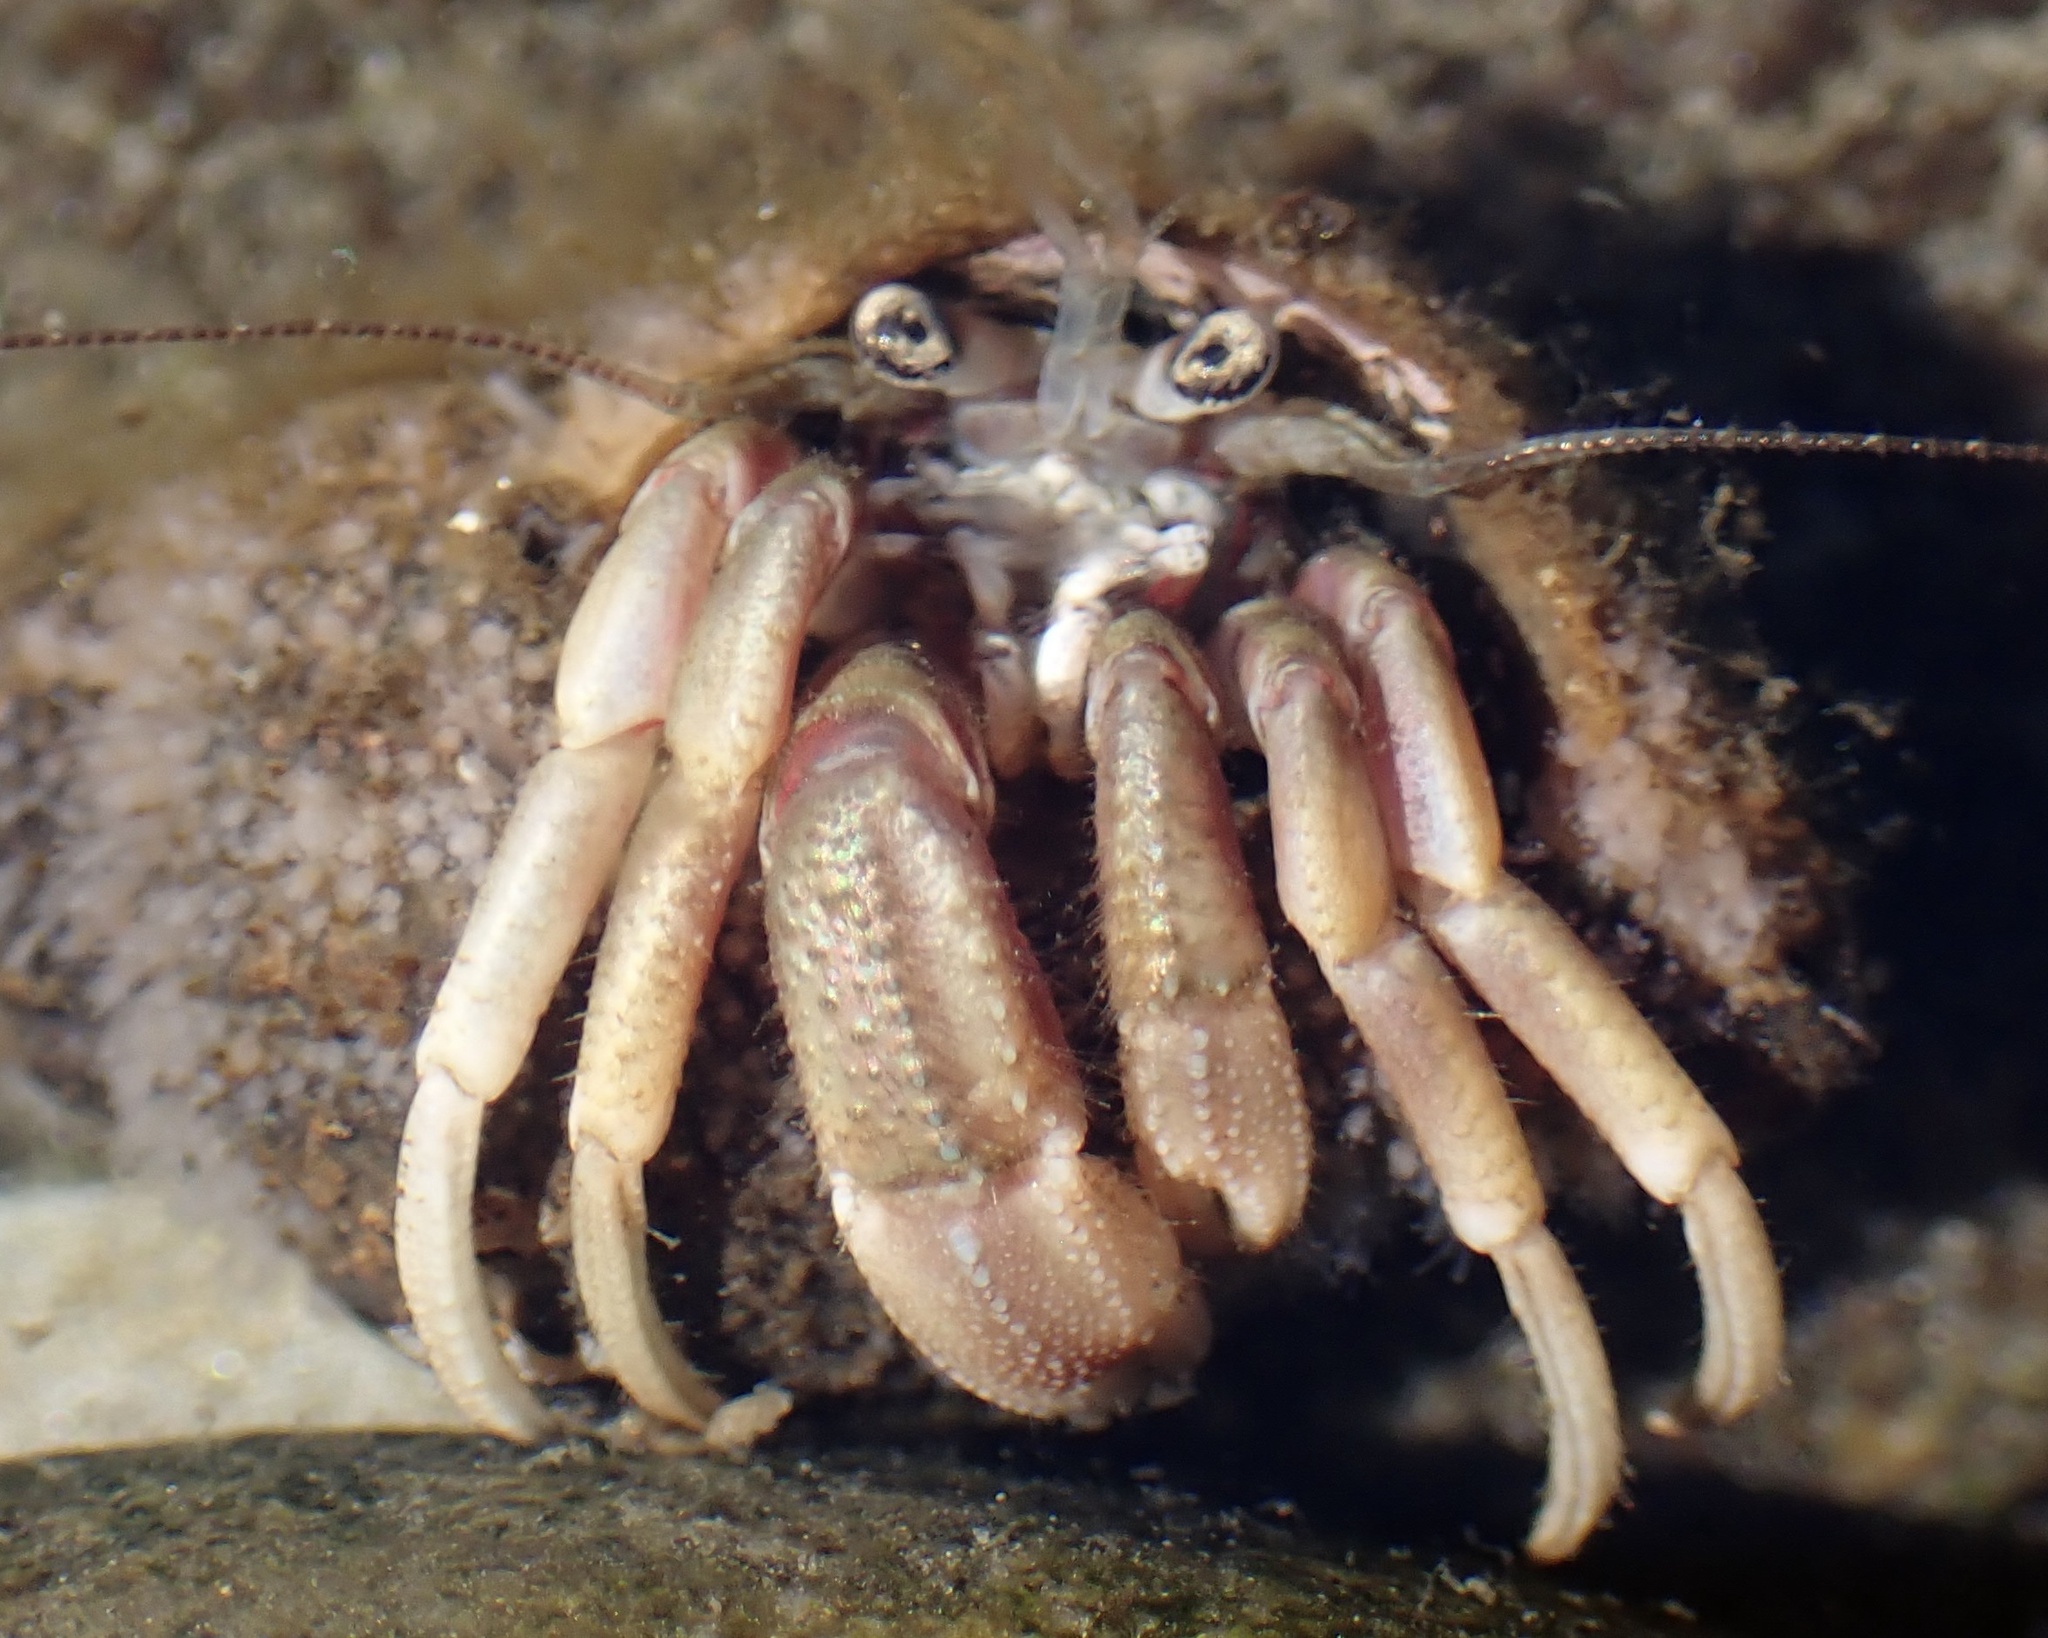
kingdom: Animalia
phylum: Arthropoda
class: Malacostraca
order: Decapoda
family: Paguridae
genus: Pagurus
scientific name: Pagurus longicarpus
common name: Long-armed hermit crab
